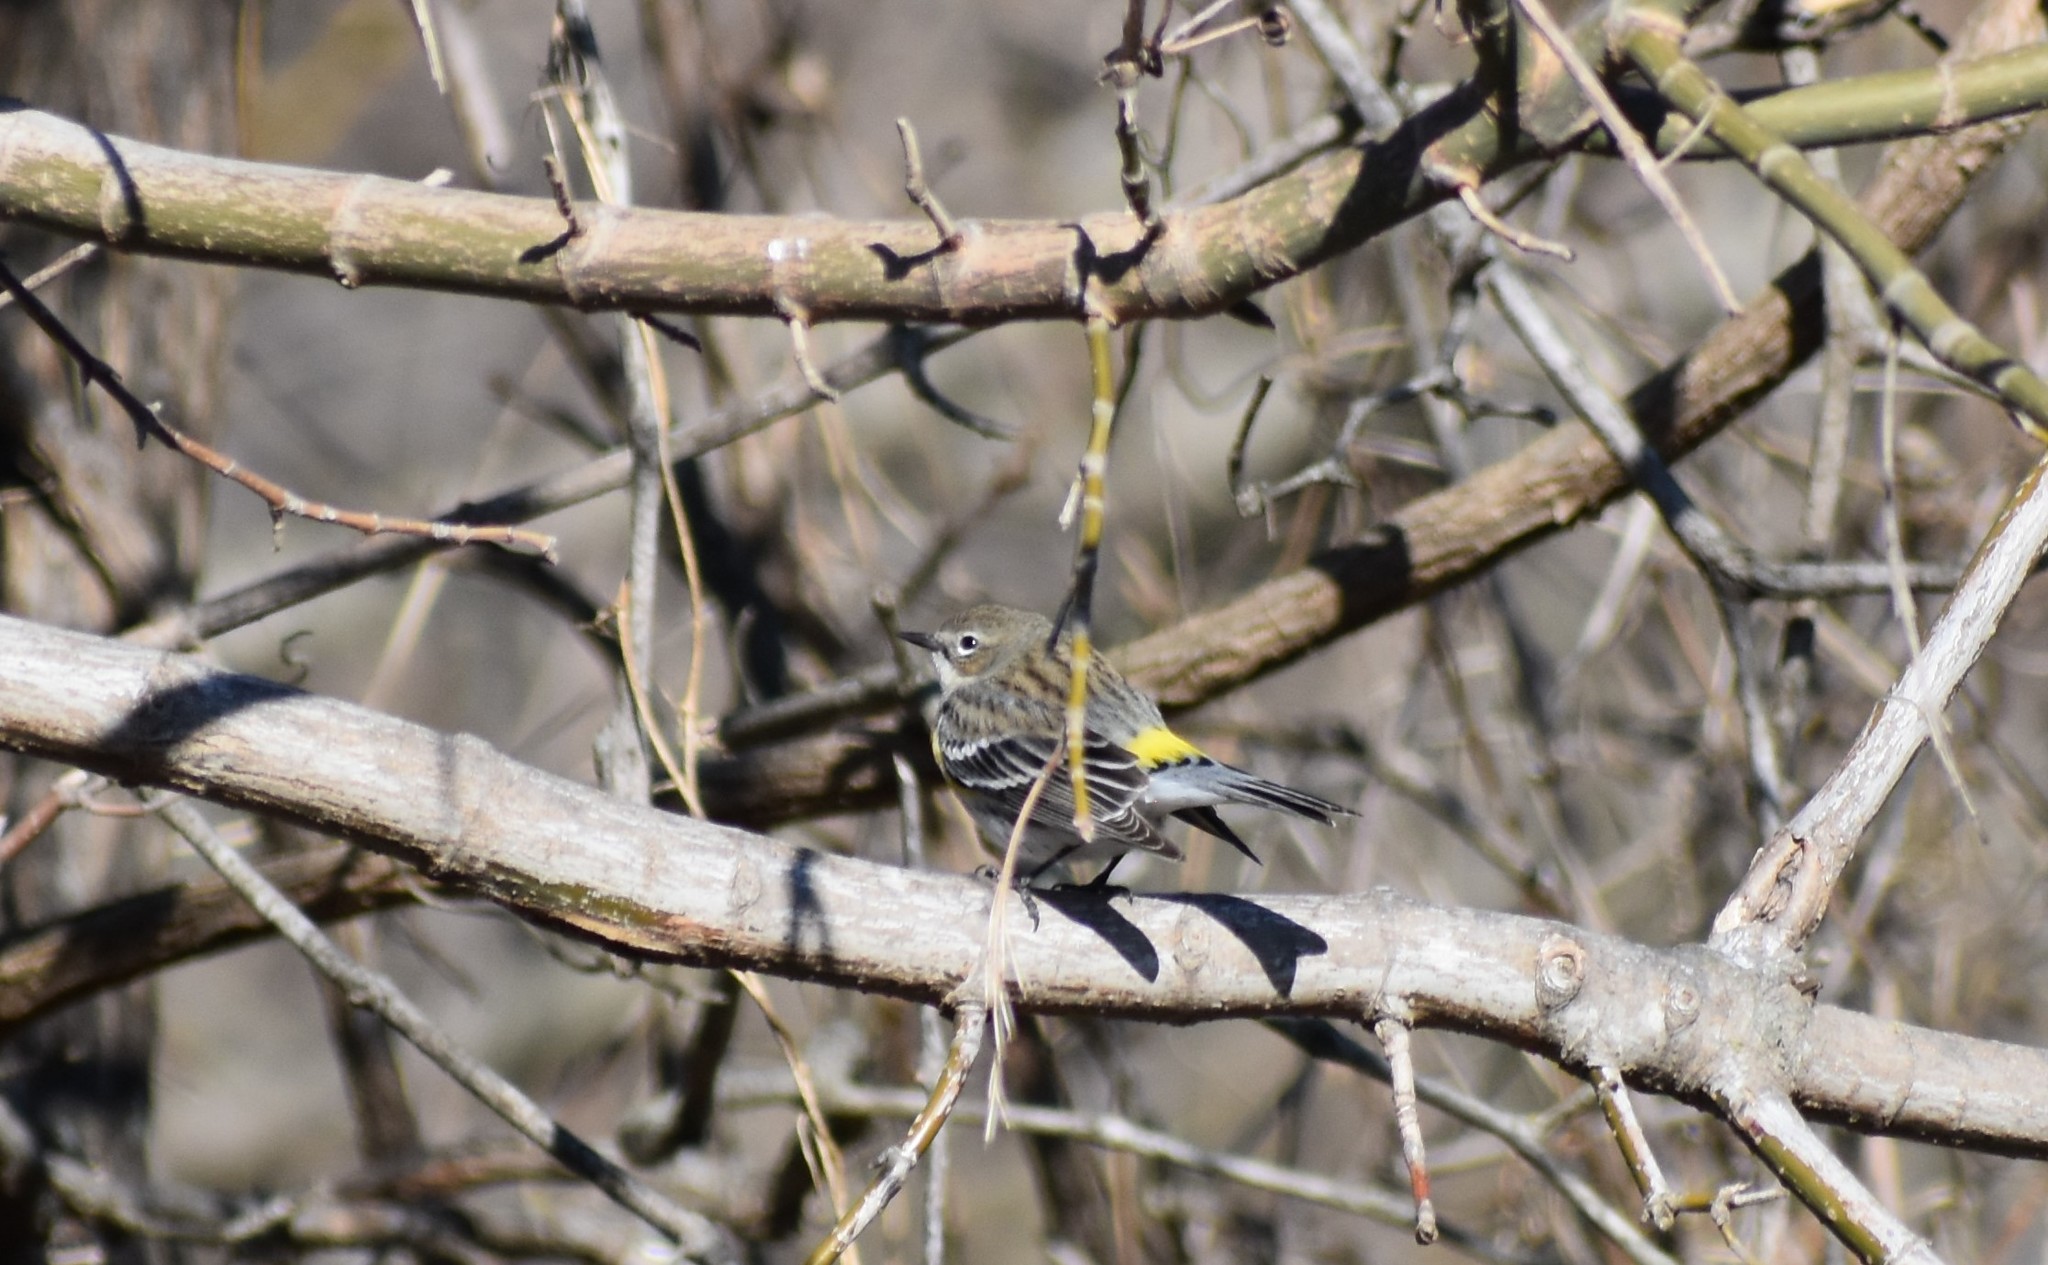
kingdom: Animalia
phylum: Chordata
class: Aves
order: Passeriformes
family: Parulidae
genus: Setophaga
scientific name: Setophaga coronata
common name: Myrtle warbler
